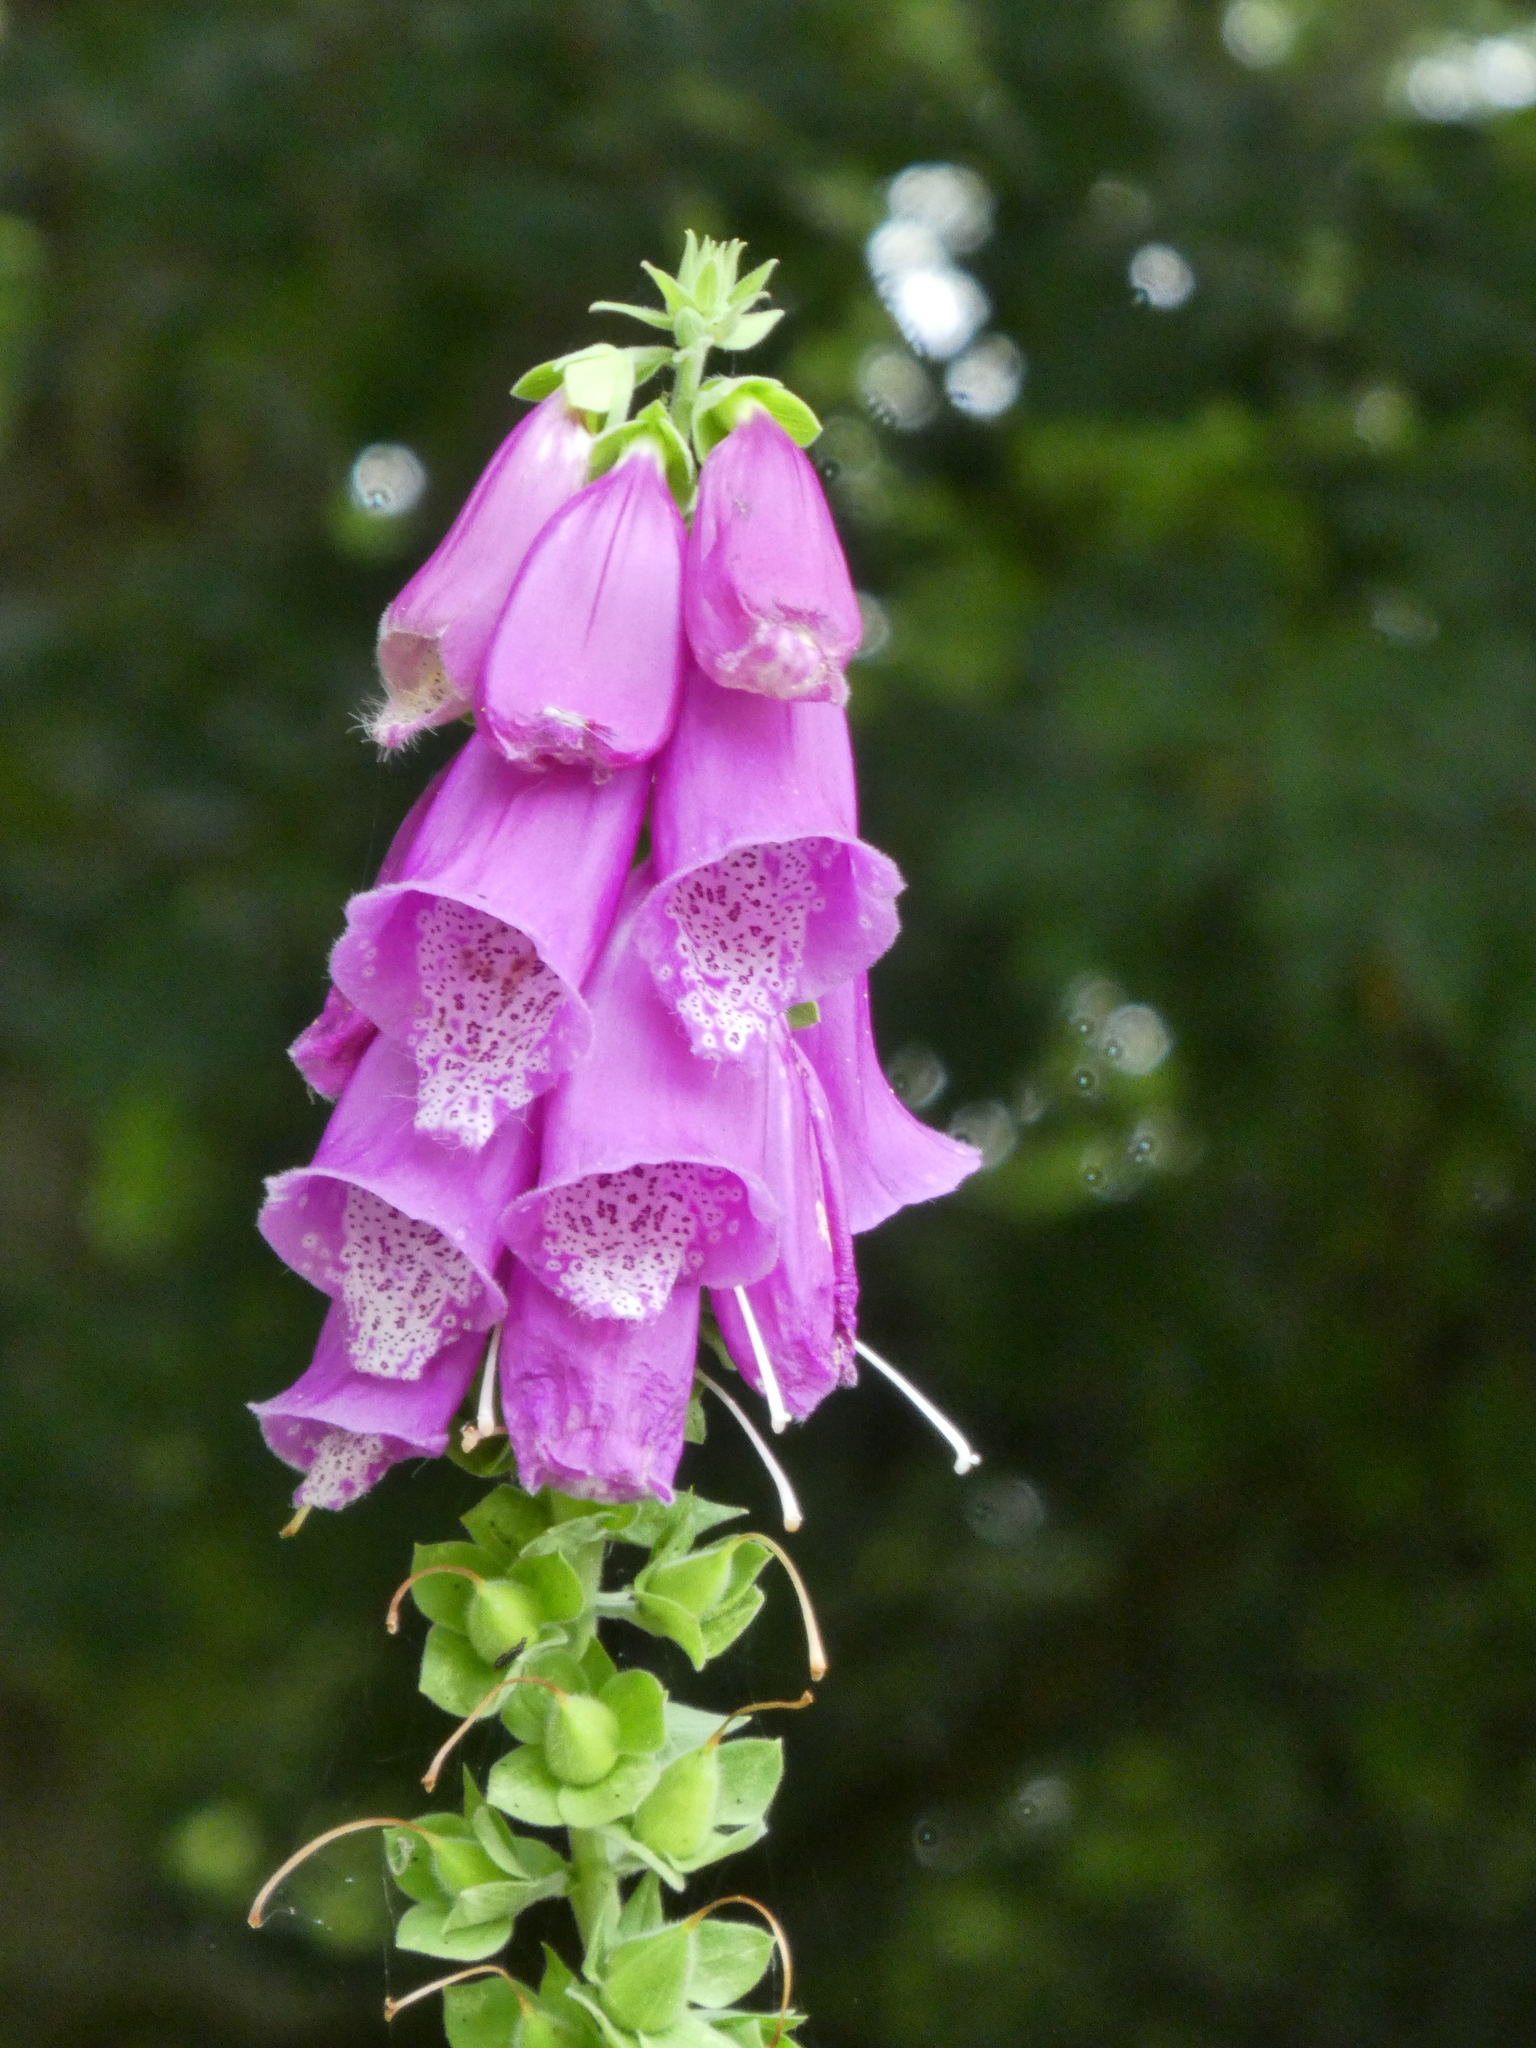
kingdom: Plantae
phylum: Tracheophyta
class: Magnoliopsida
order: Lamiales
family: Plantaginaceae
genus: Digitalis
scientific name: Digitalis purpurea
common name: Foxglove
